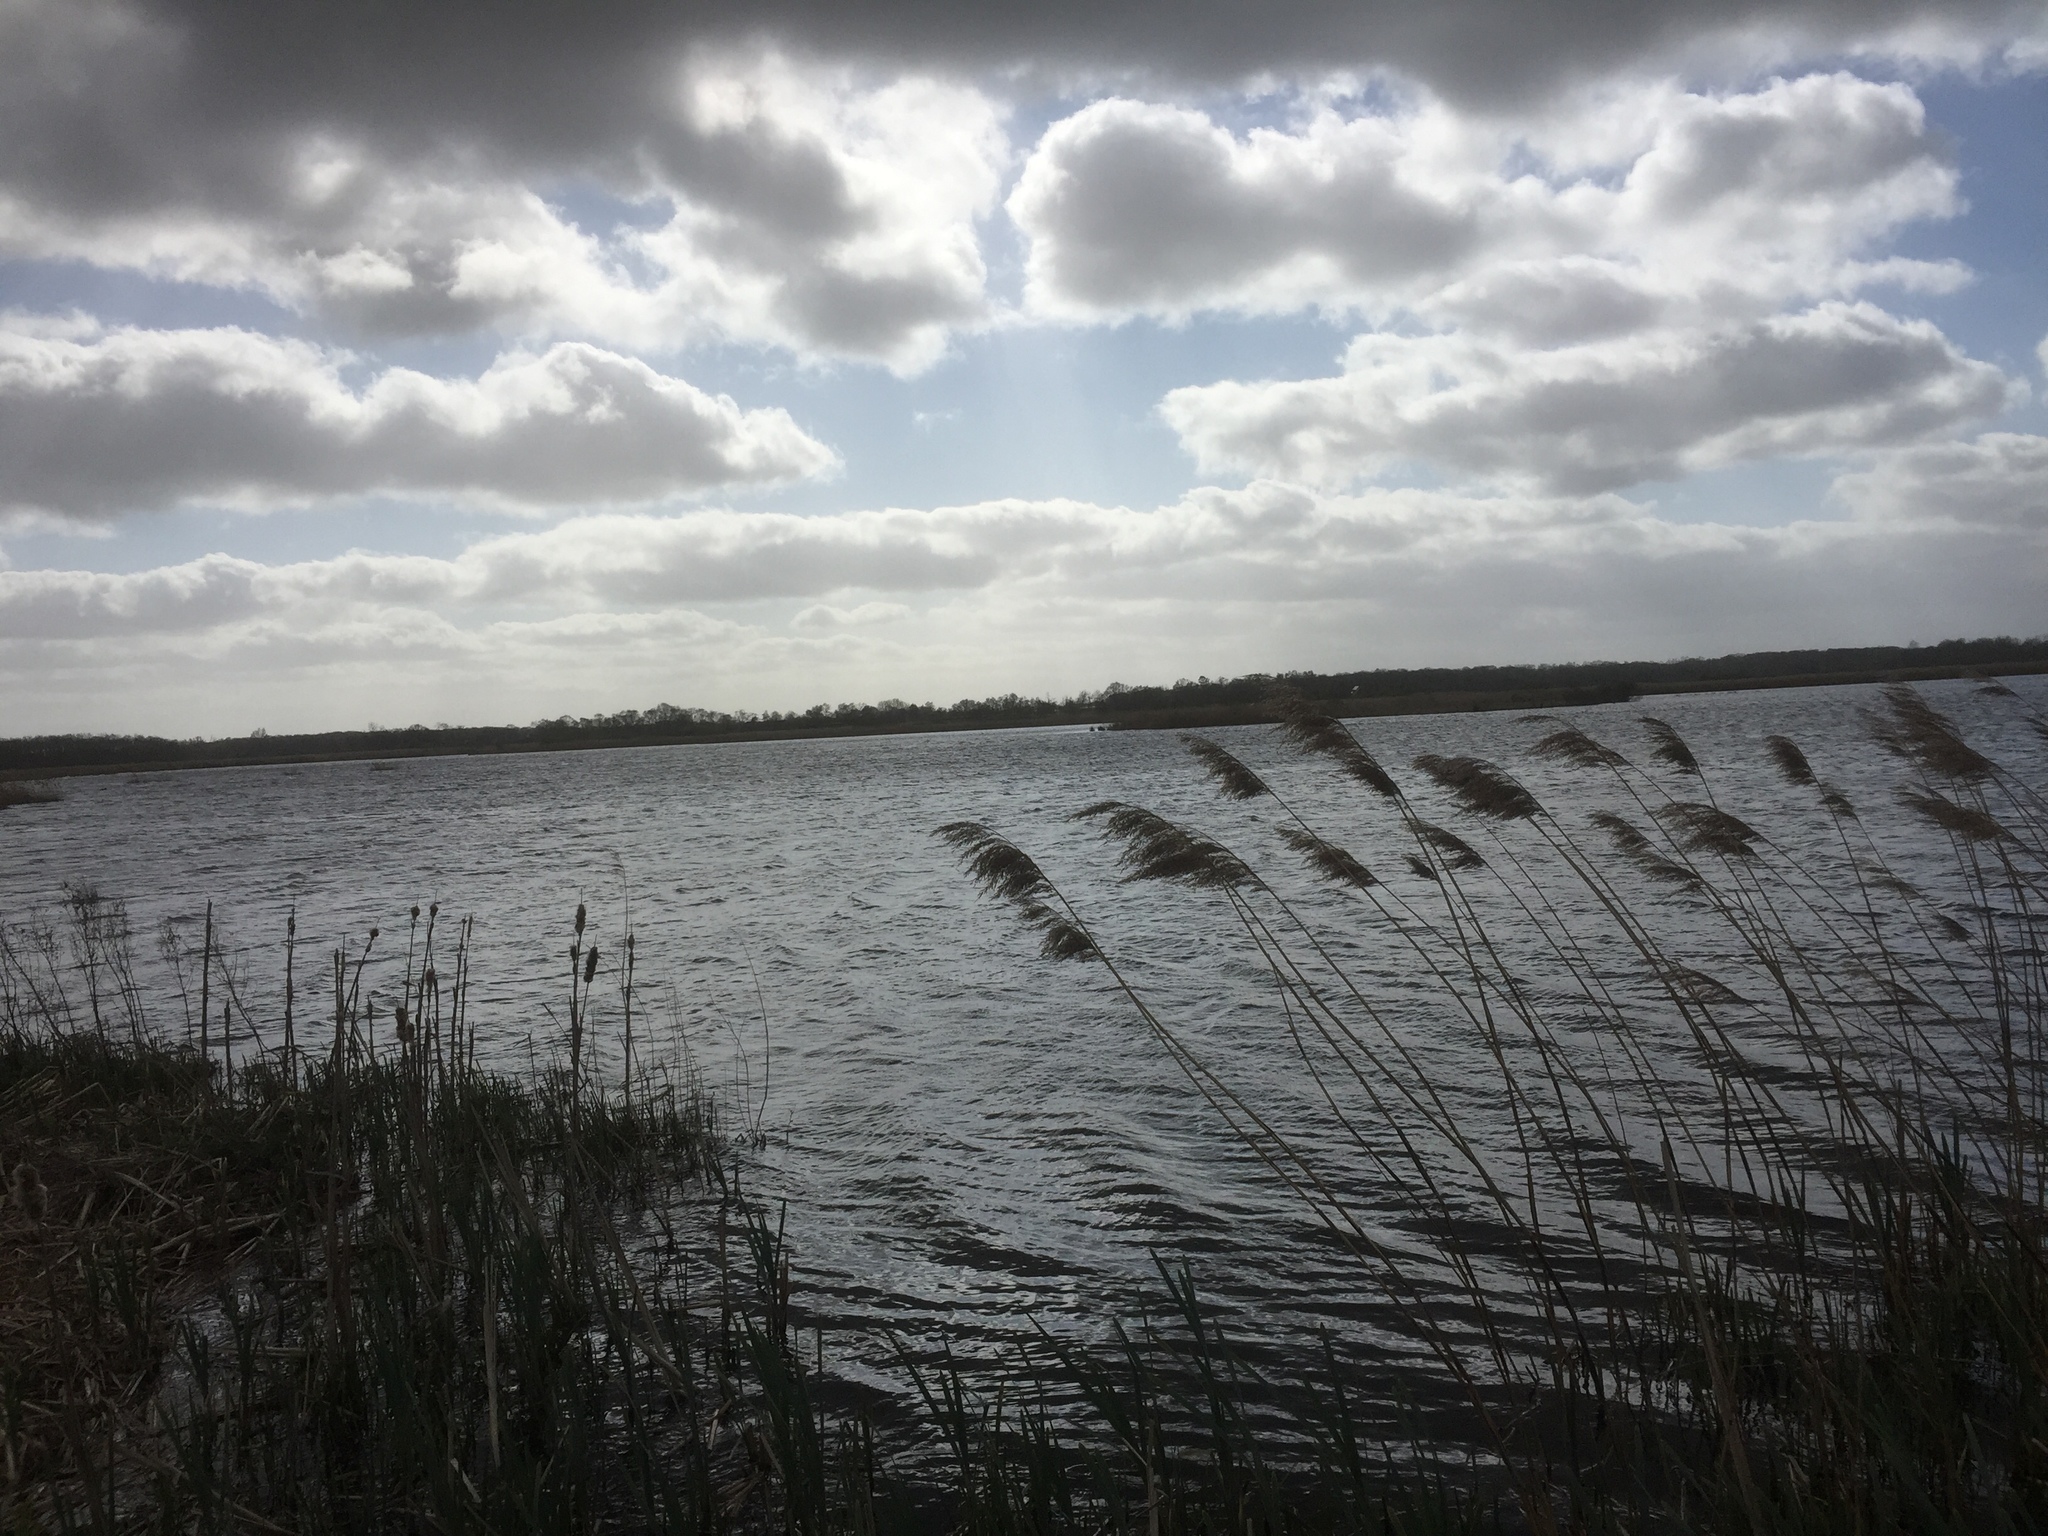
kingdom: Plantae
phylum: Tracheophyta
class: Liliopsida
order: Poales
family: Poaceae
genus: Phragmites
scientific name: Phragmites australis
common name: Common reed
